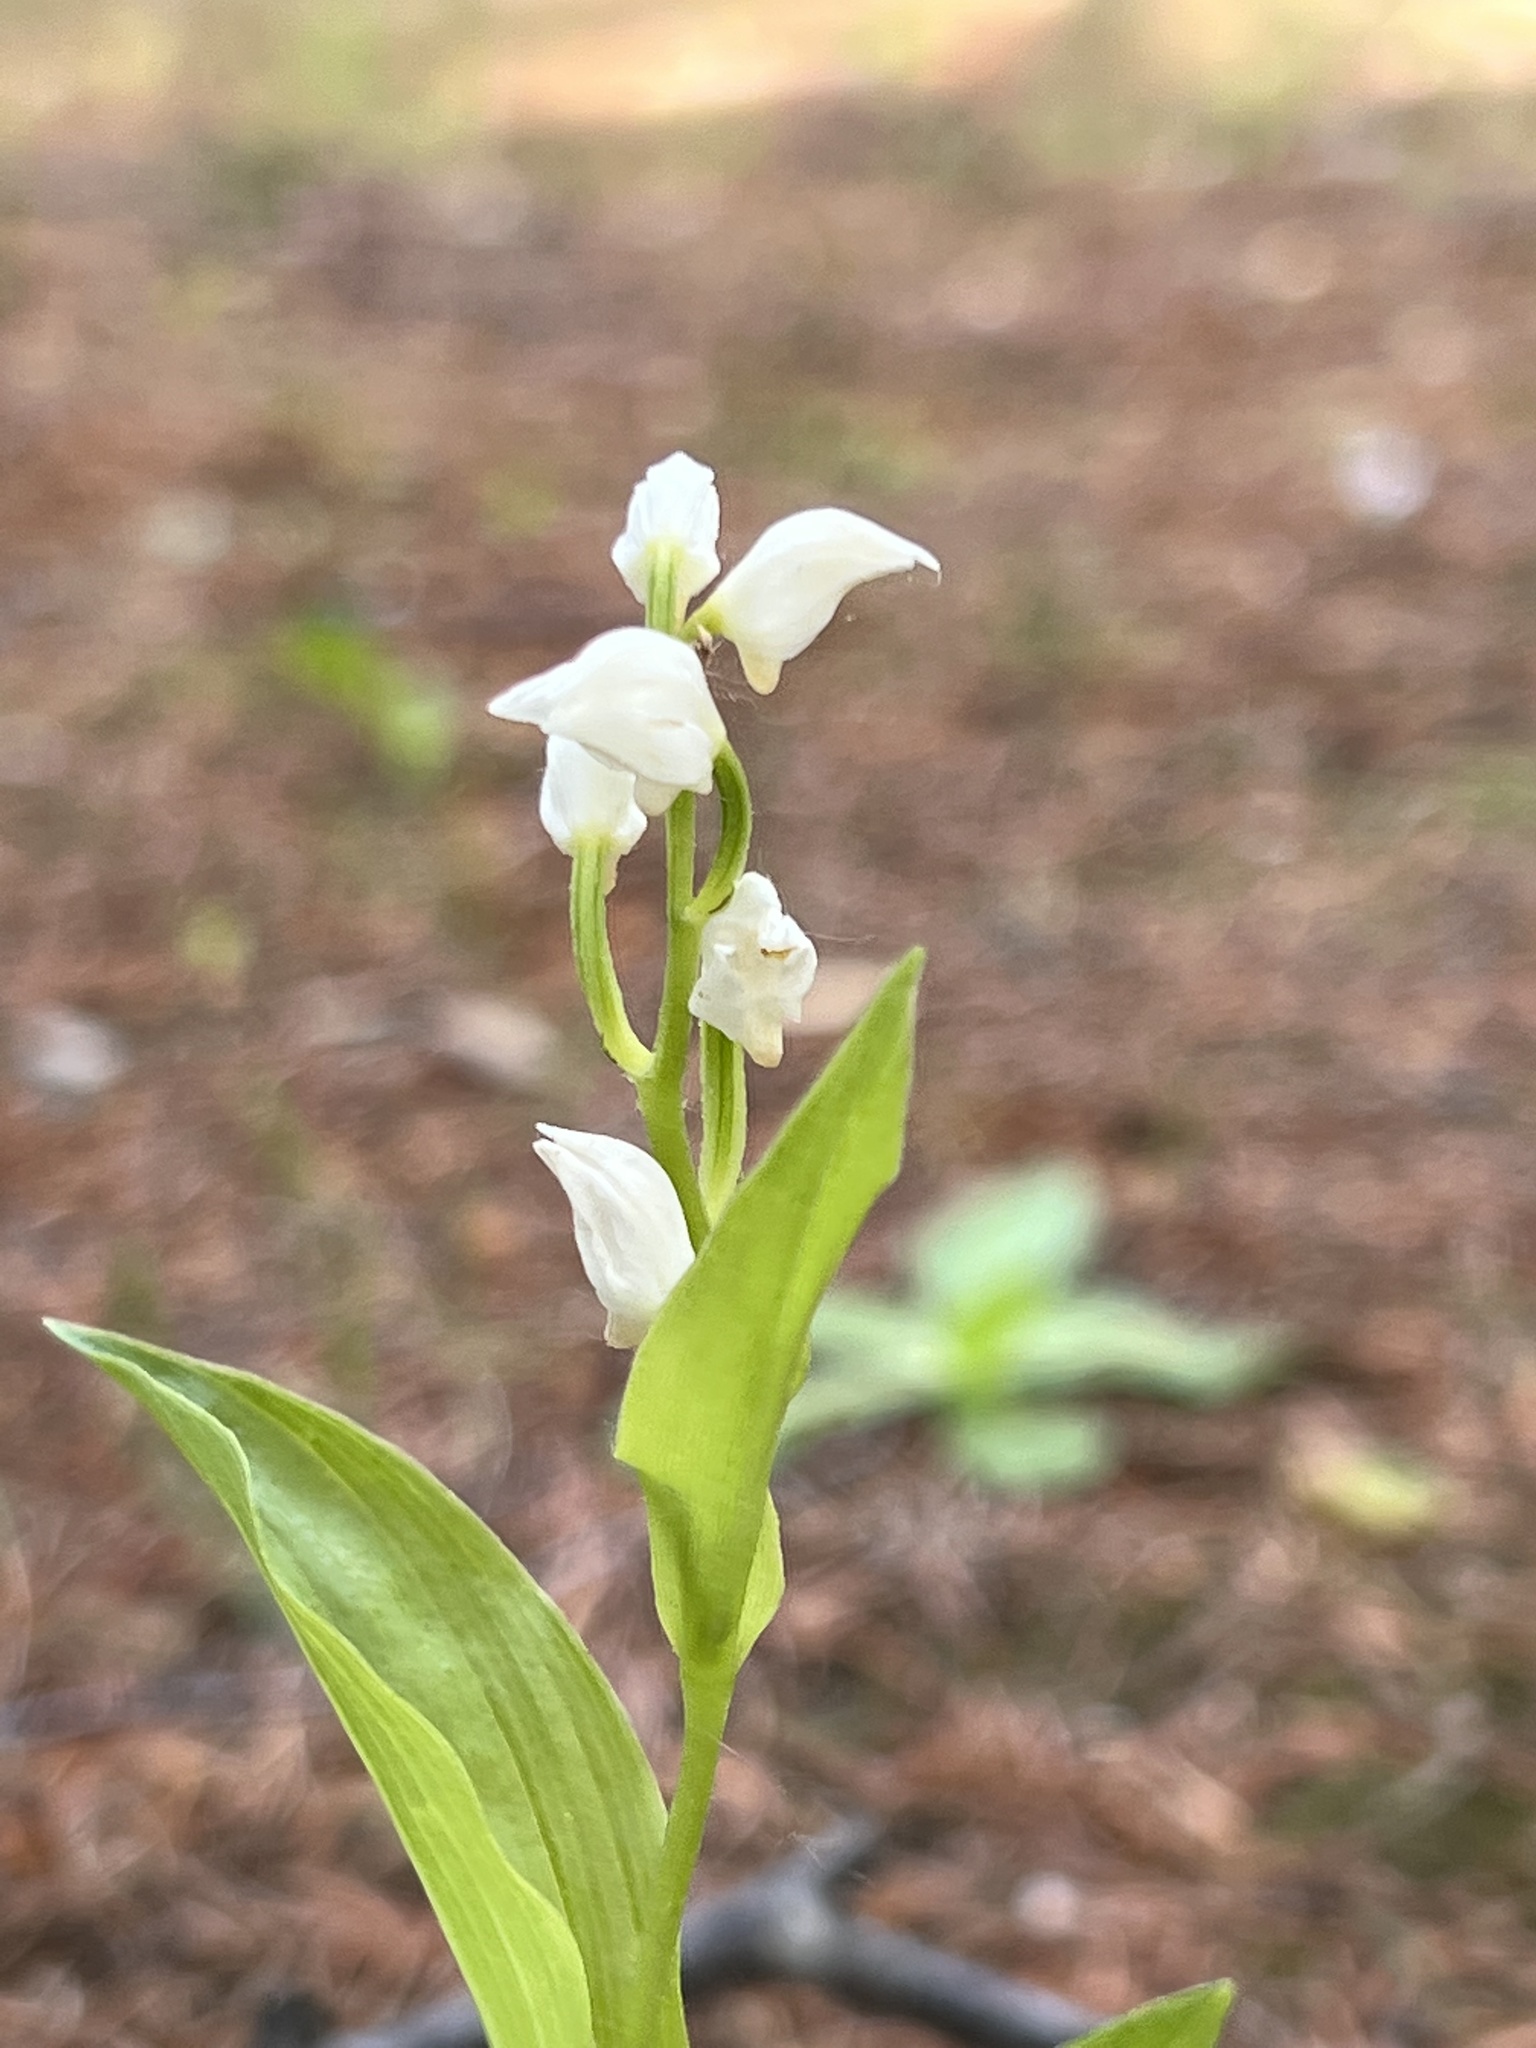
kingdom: Plantae
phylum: Tracheophyta
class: Liliopsida
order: Asparagales
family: Orchidaceae
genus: Cephalanthera
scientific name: Cephalanthera erecta
